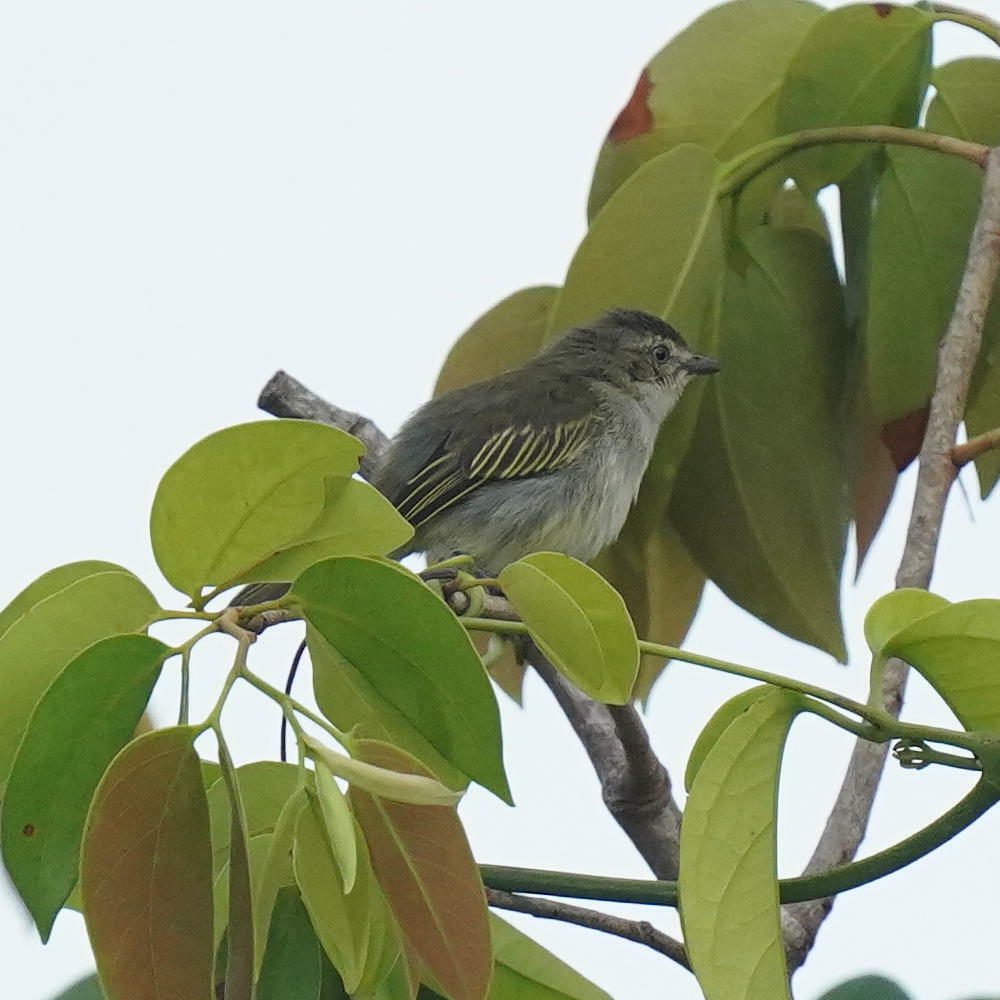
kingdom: Animalia
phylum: Chordata
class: Aves
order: Passeriformes
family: Tyrannidae
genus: Zimmerius
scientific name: Zimmerius vilissimus
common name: Paltry tyrannulet
